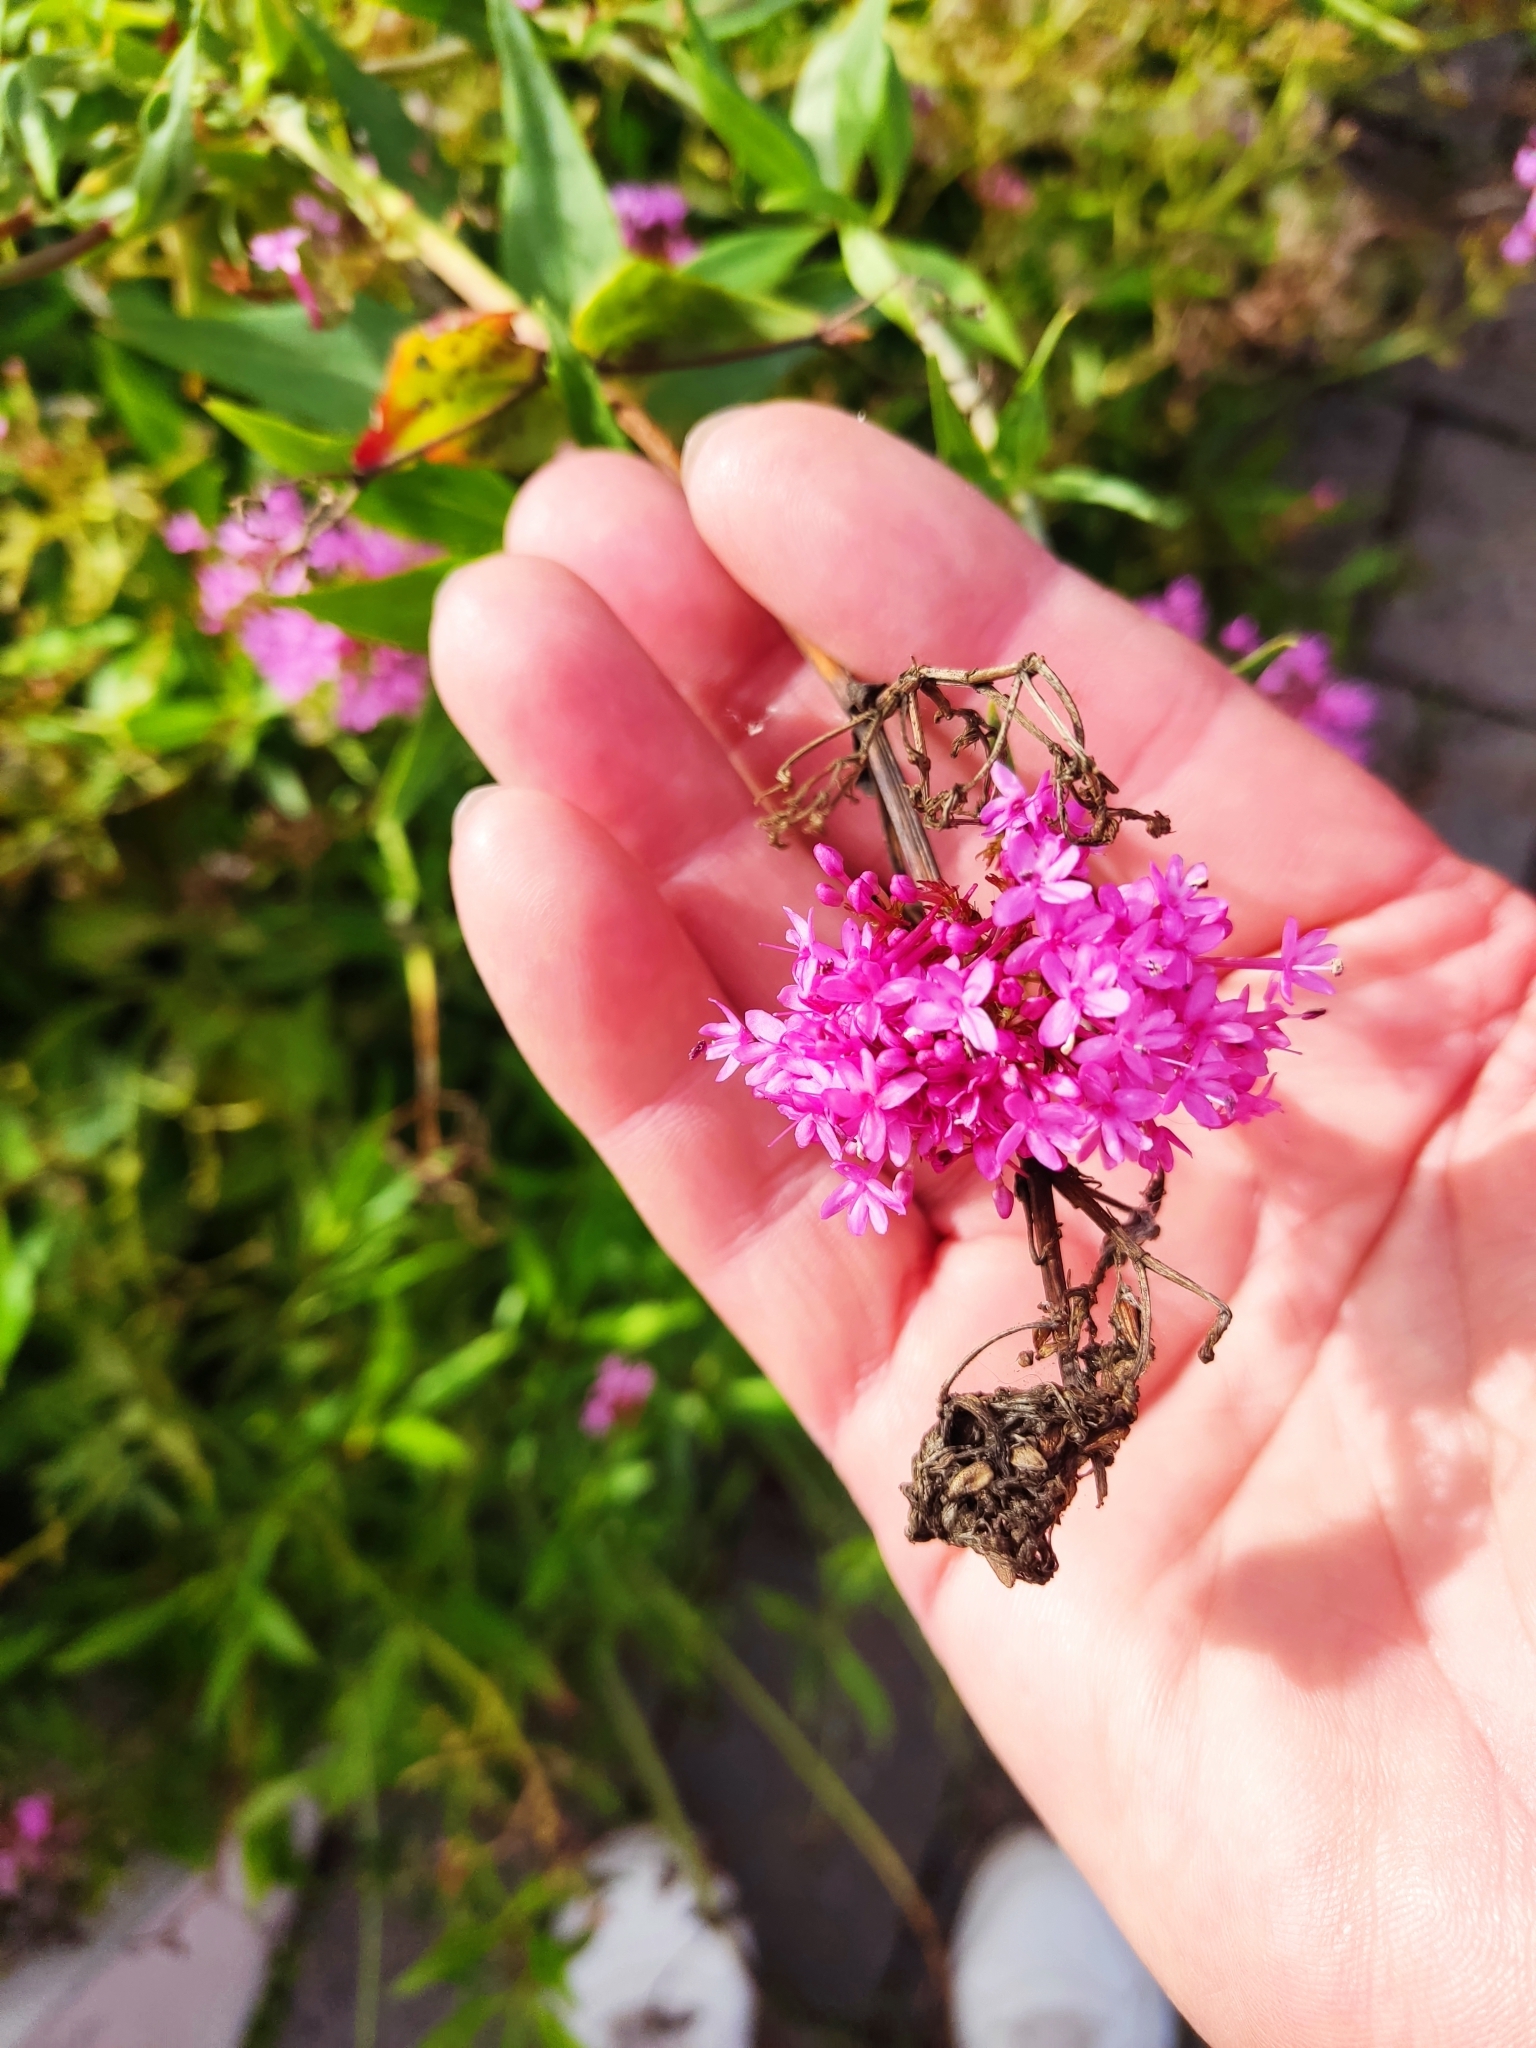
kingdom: Plantae
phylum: Tracheophyta
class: Magnoliopsida
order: Dipsacales
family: Caprifoliaceae
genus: Centranthus
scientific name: Centranthus ruber
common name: Red valerian
